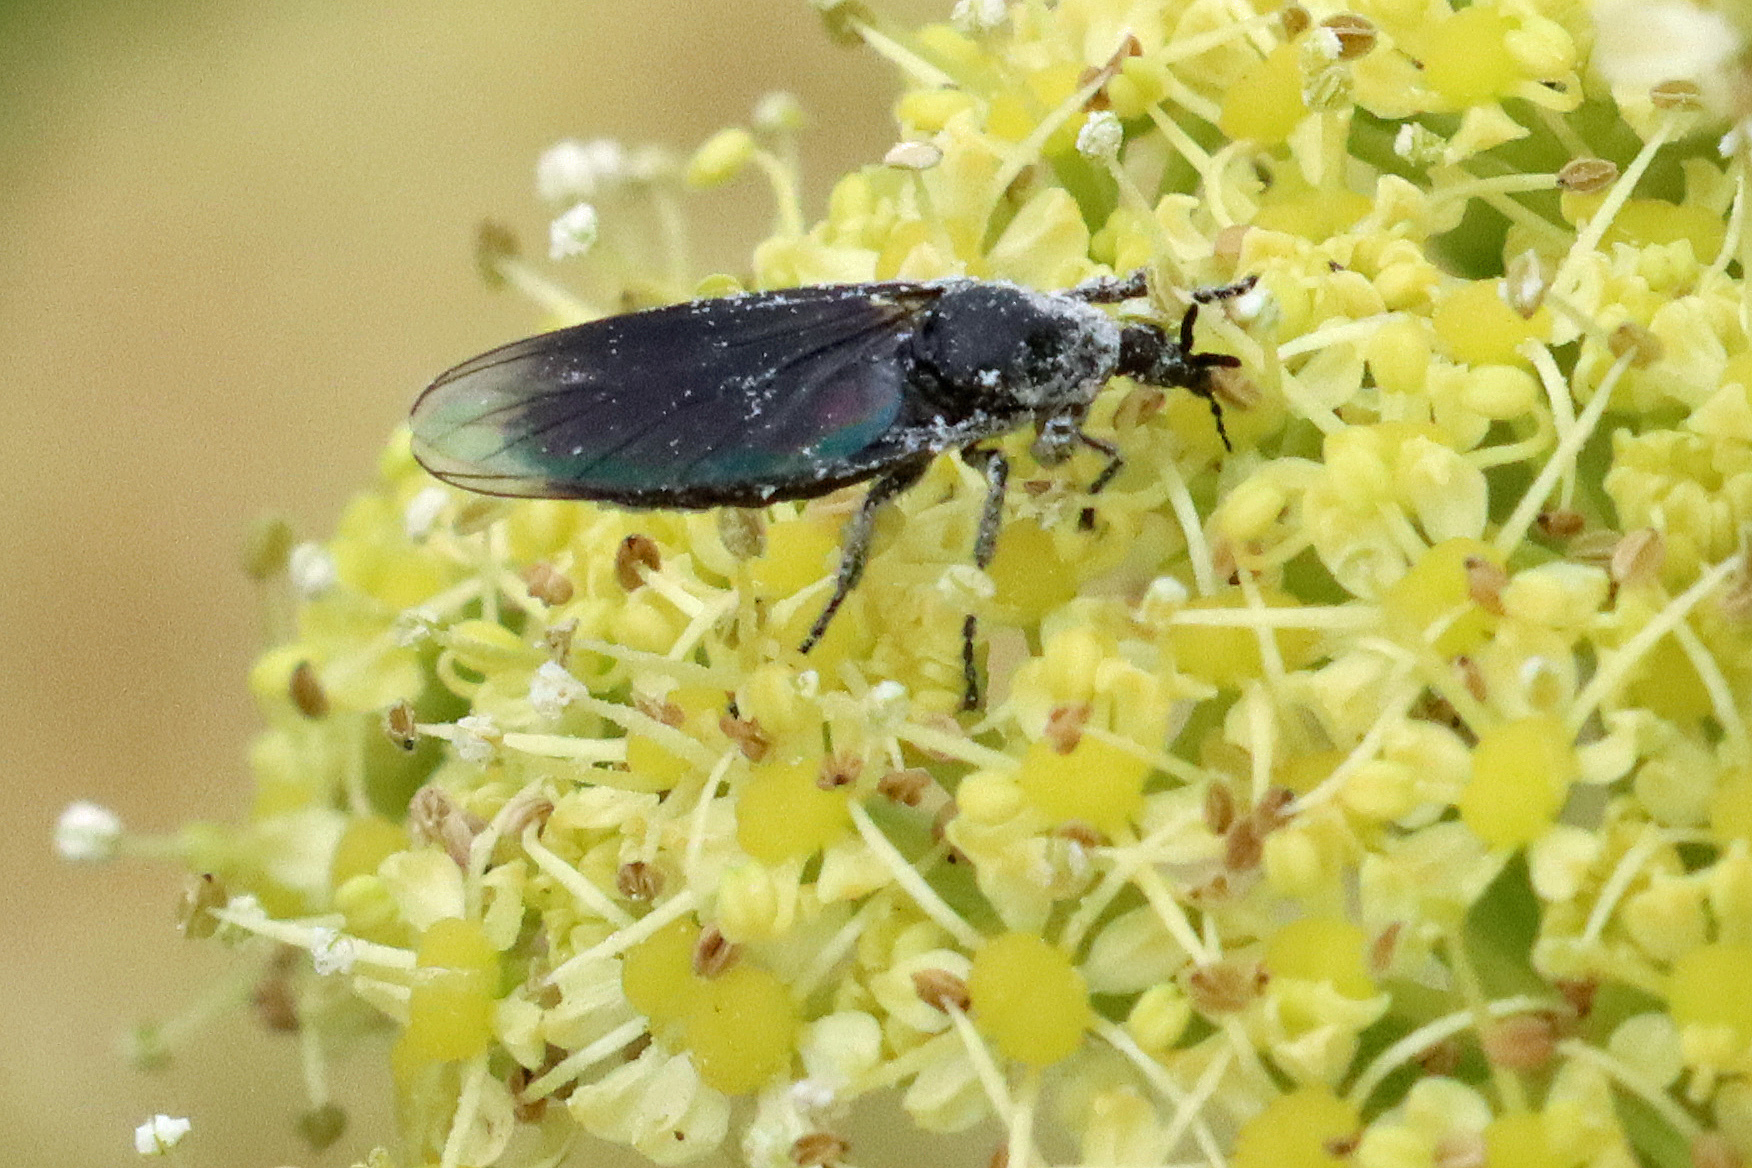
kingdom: Animalia
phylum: Arthropoda
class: Insecta
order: Diptera
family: Bibionidae
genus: Dilophus
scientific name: Dilophus febrilis
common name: Fever fly
